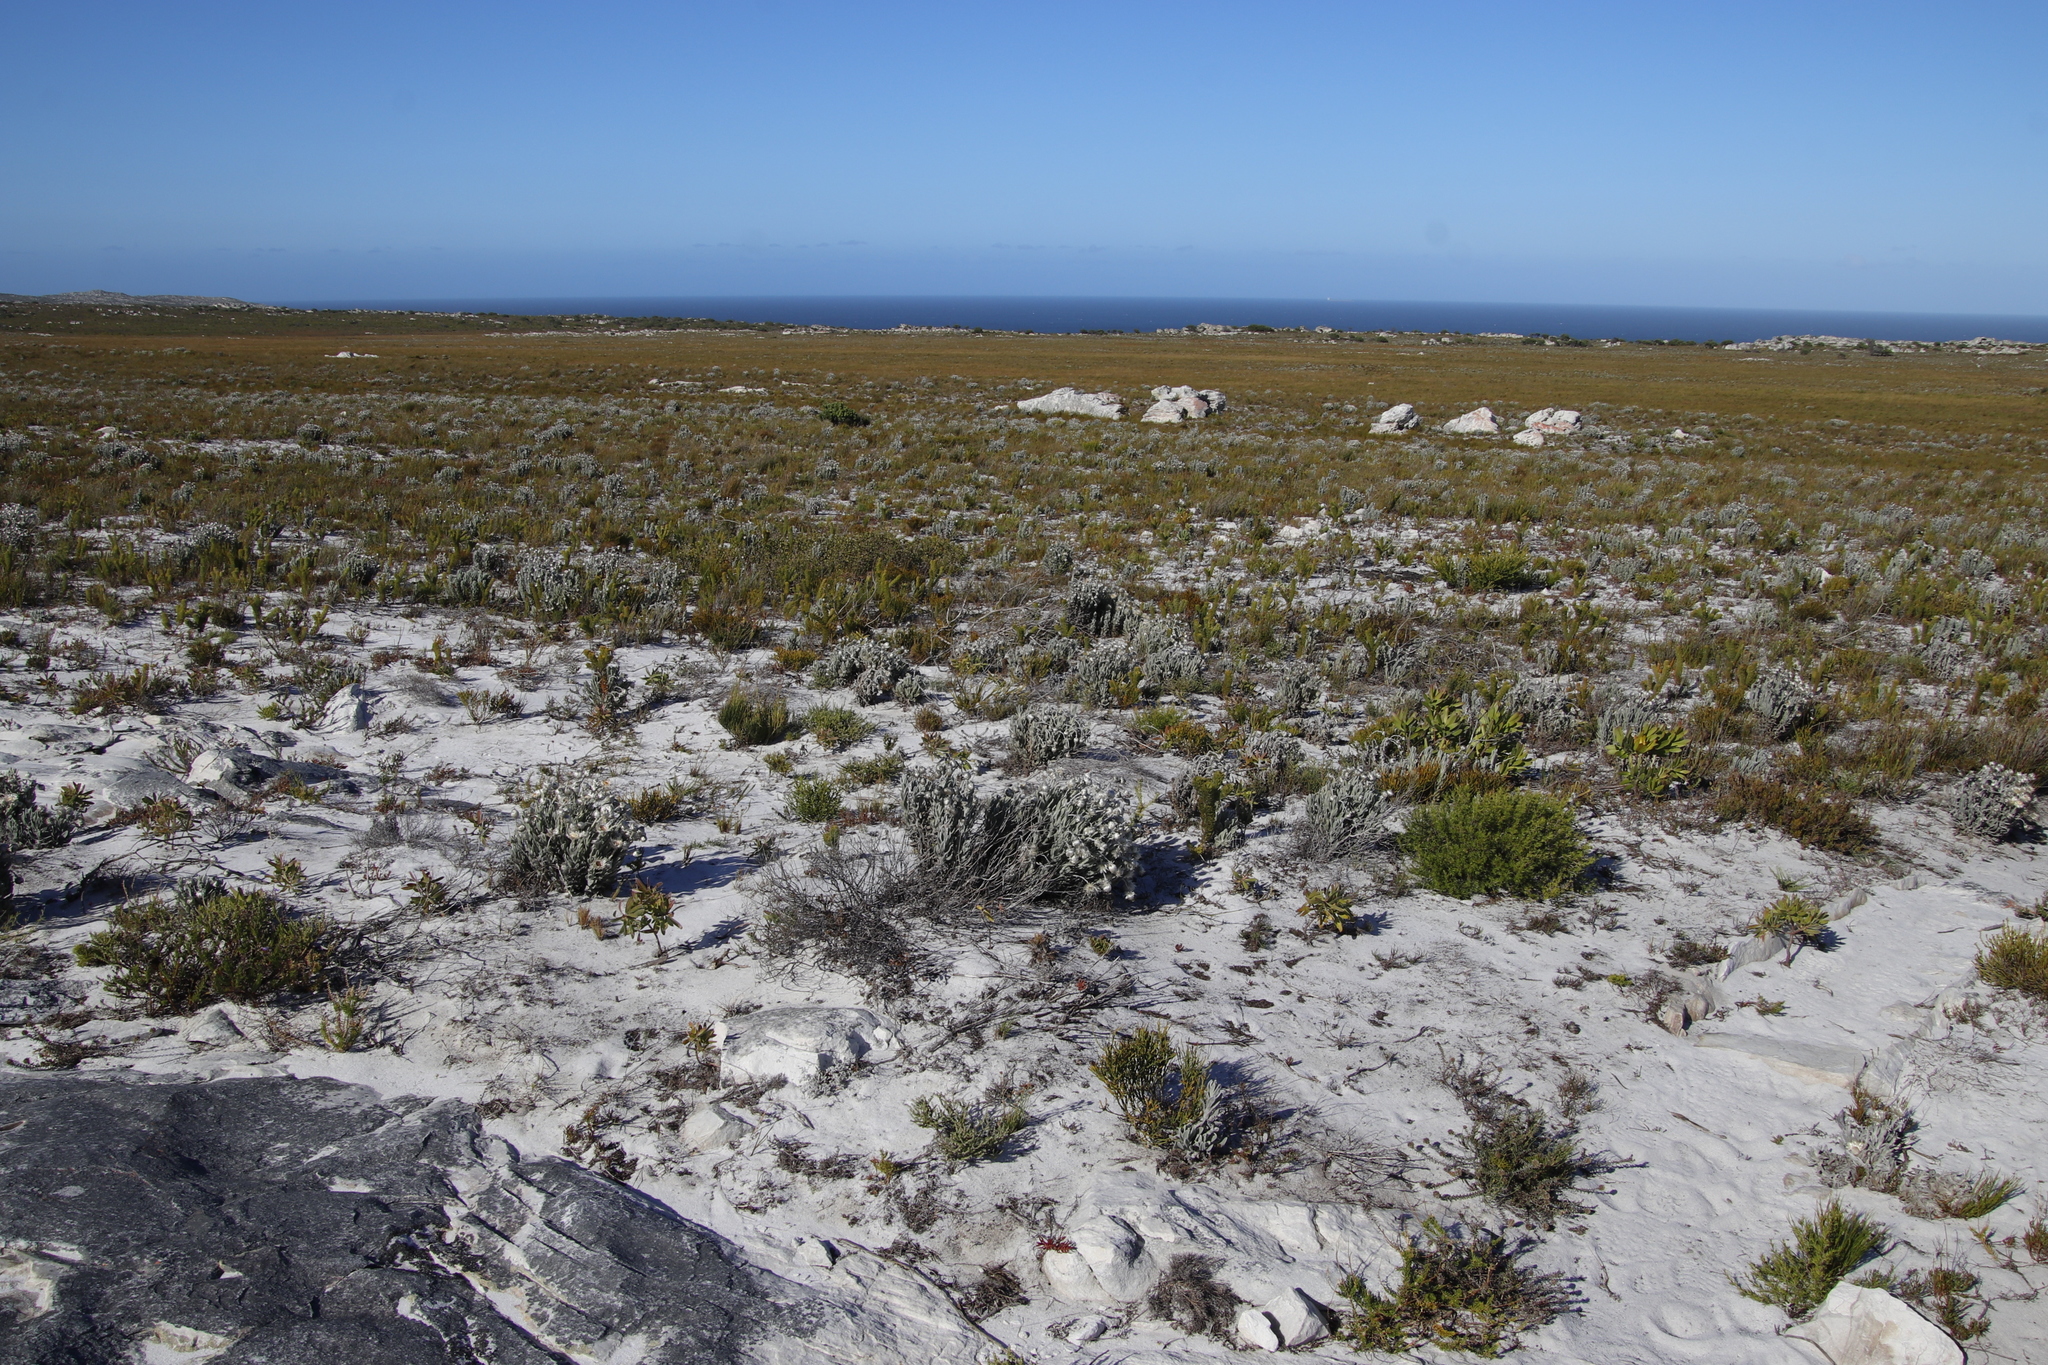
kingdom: Plantae
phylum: Tracheophyta
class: Magnoliopsida
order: Asterales
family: Asteraceae
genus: Syncarpha
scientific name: Syncarpha vestita
